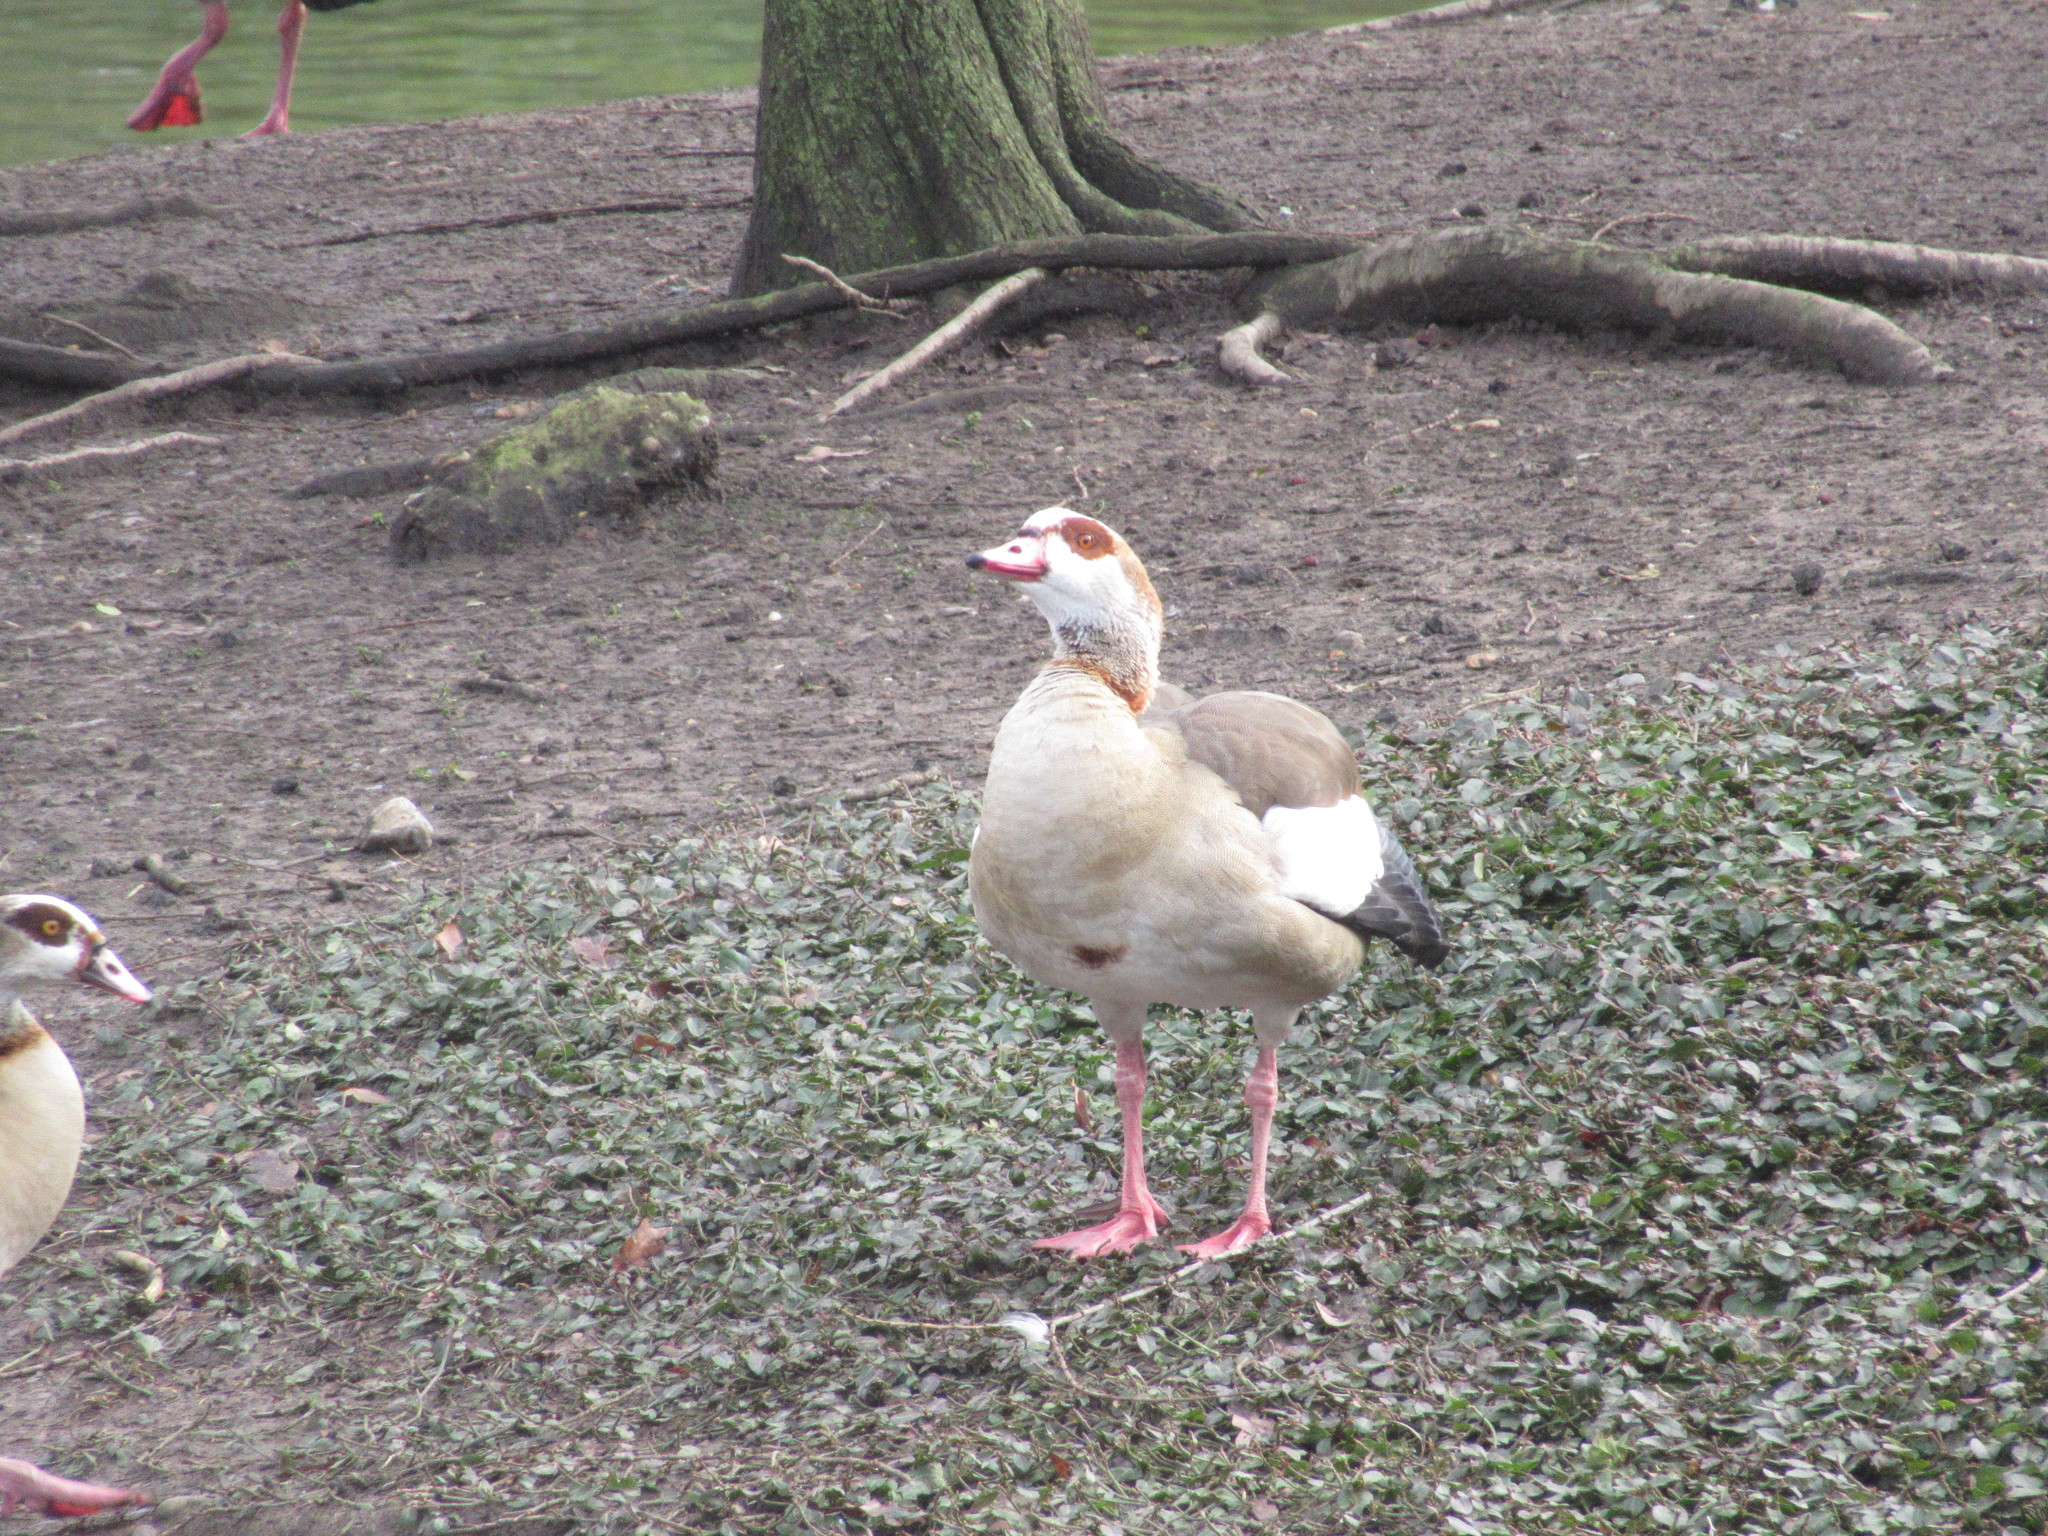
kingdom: Animalia
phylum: Chordata
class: Aves
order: Anseriformes
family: Anatidae
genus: Alopochen
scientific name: Alopochen aegyptiaca
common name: Egyptian goose
